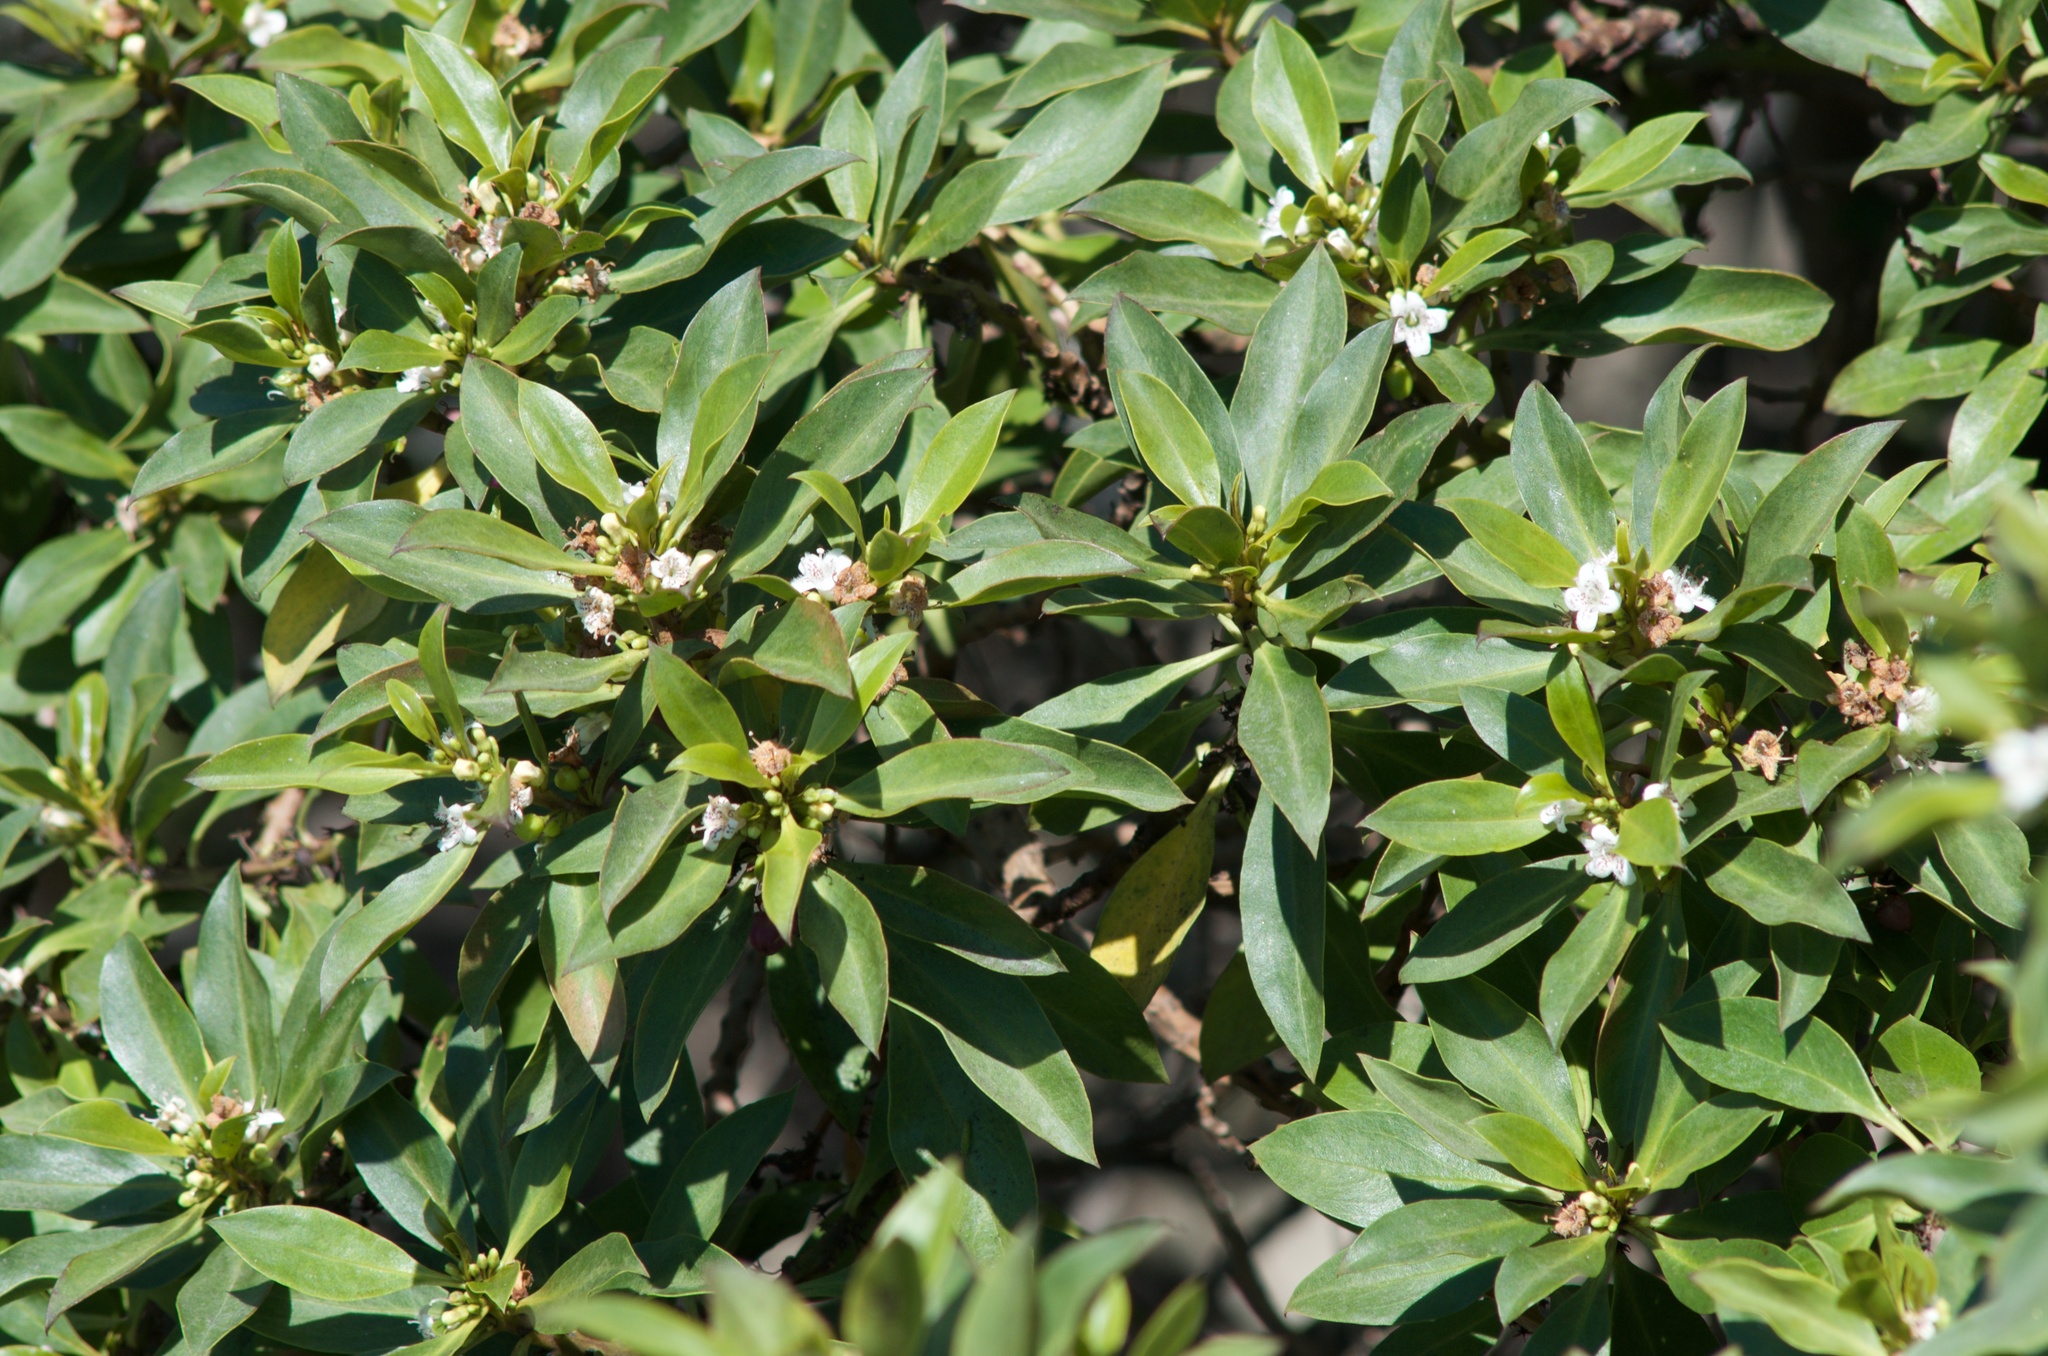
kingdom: Plantae
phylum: Tracheophyta
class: Magnoliopsida
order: Lamiales
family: Scrophulariaceae
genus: Myoporum
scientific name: Myoporum laetum
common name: Ngaio tree
